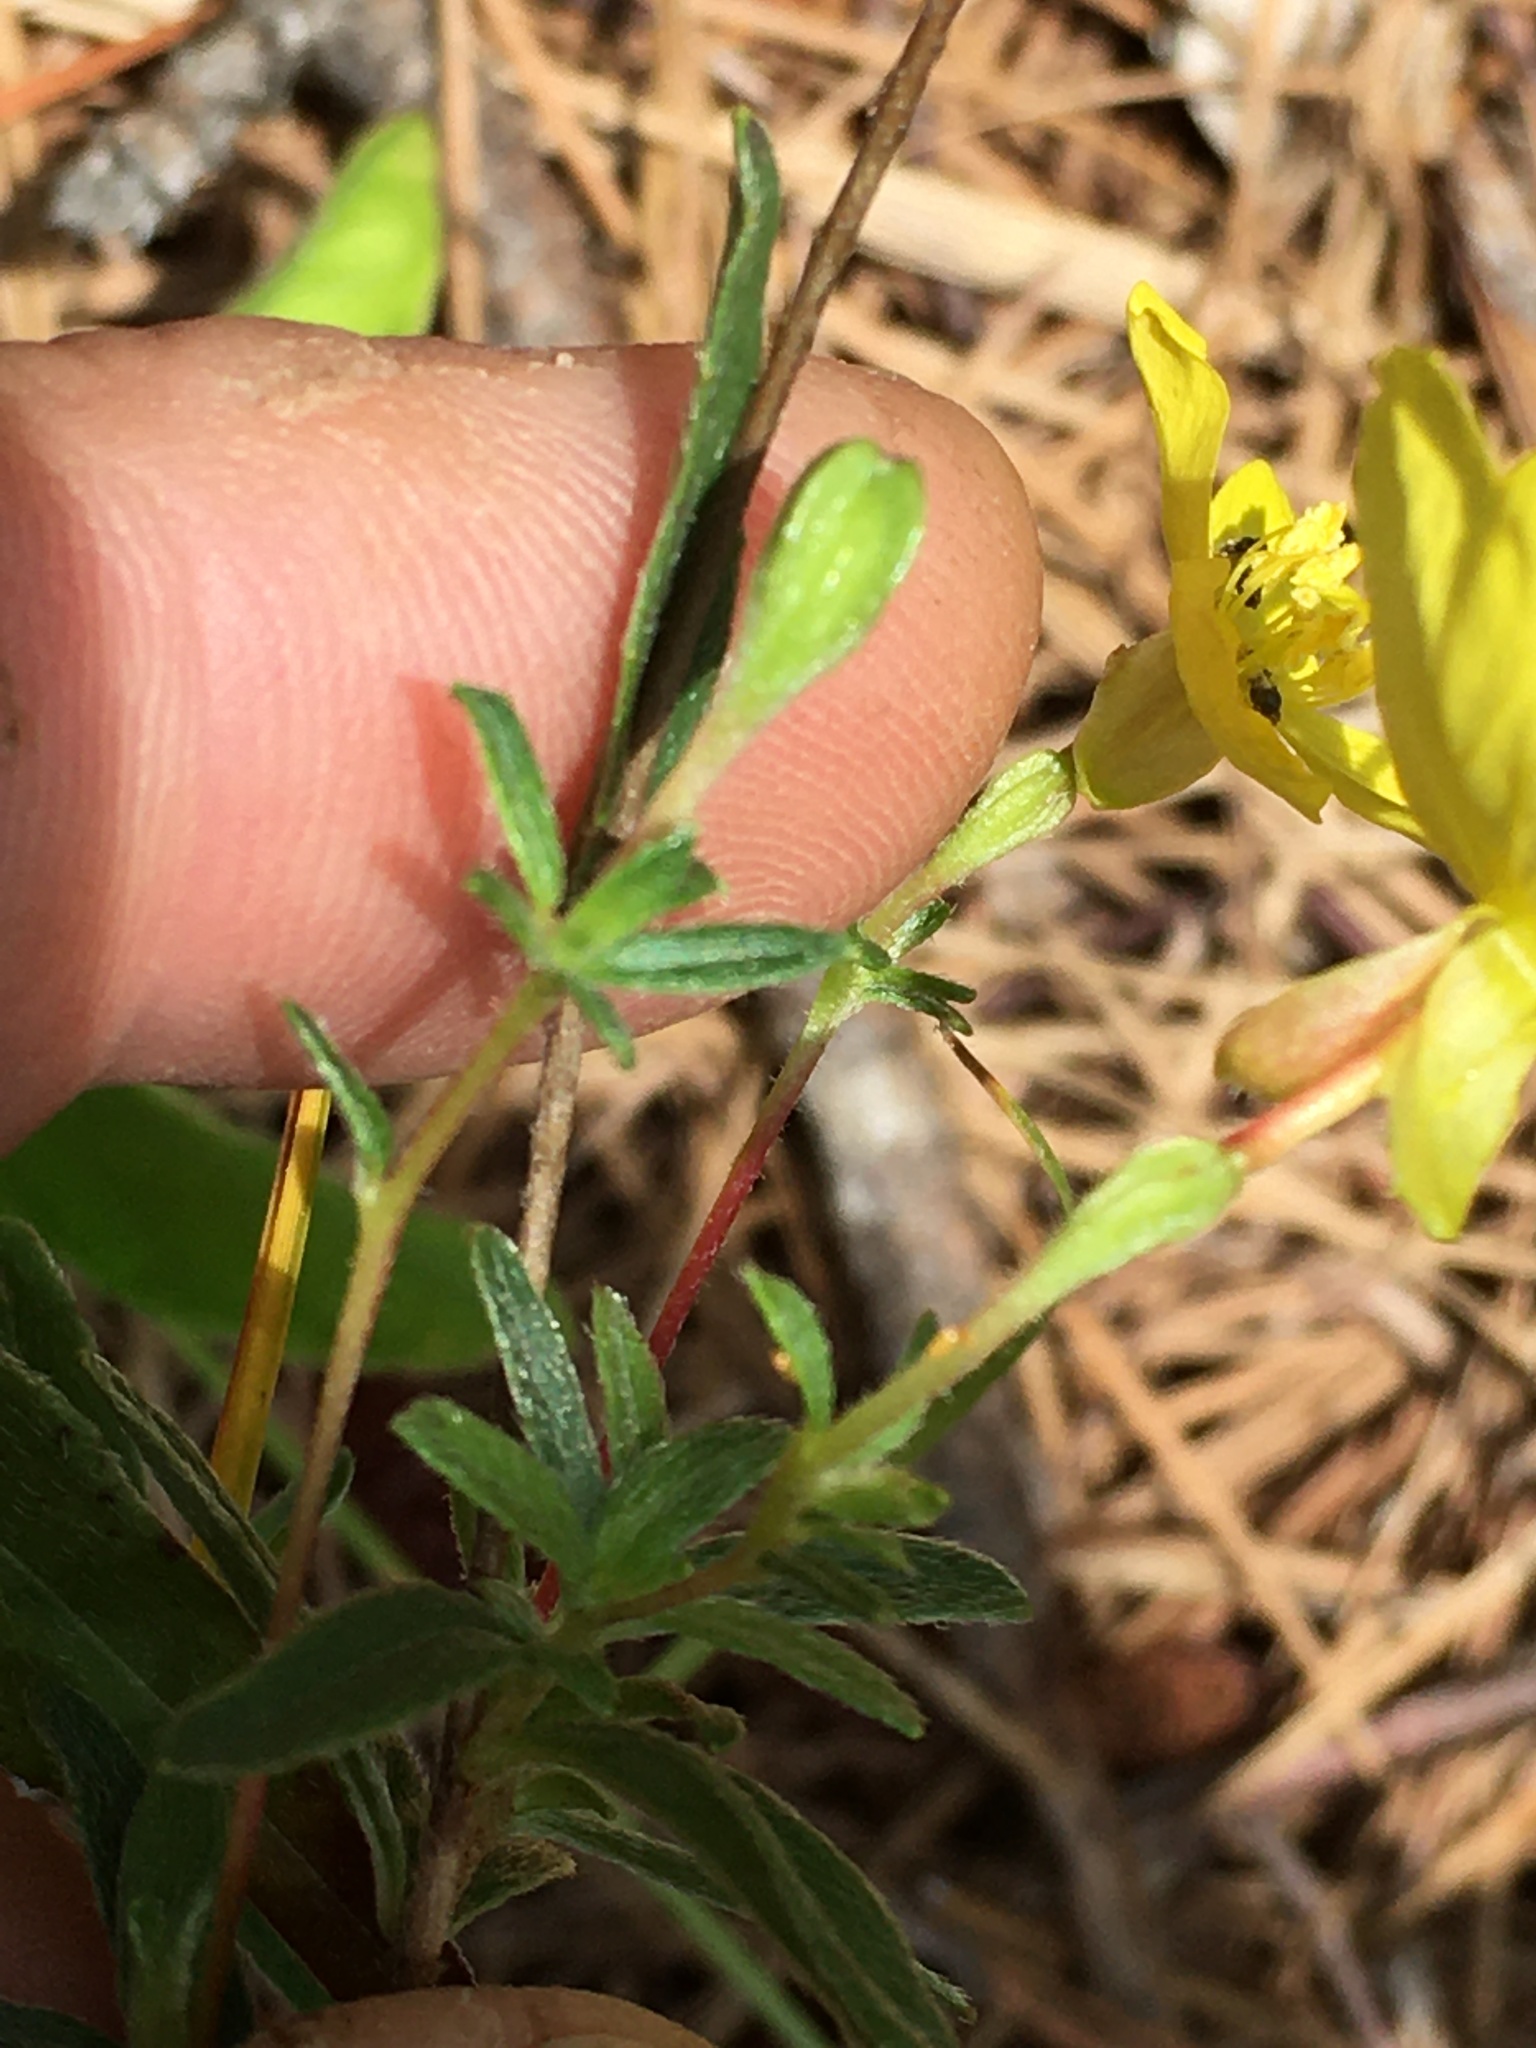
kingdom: Plantae
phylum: Tracheophyta
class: Magnoliopsida
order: Myrtales
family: Onagraceae
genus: Oenothera
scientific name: Oenothera fruticosa
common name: Southern sundrops
